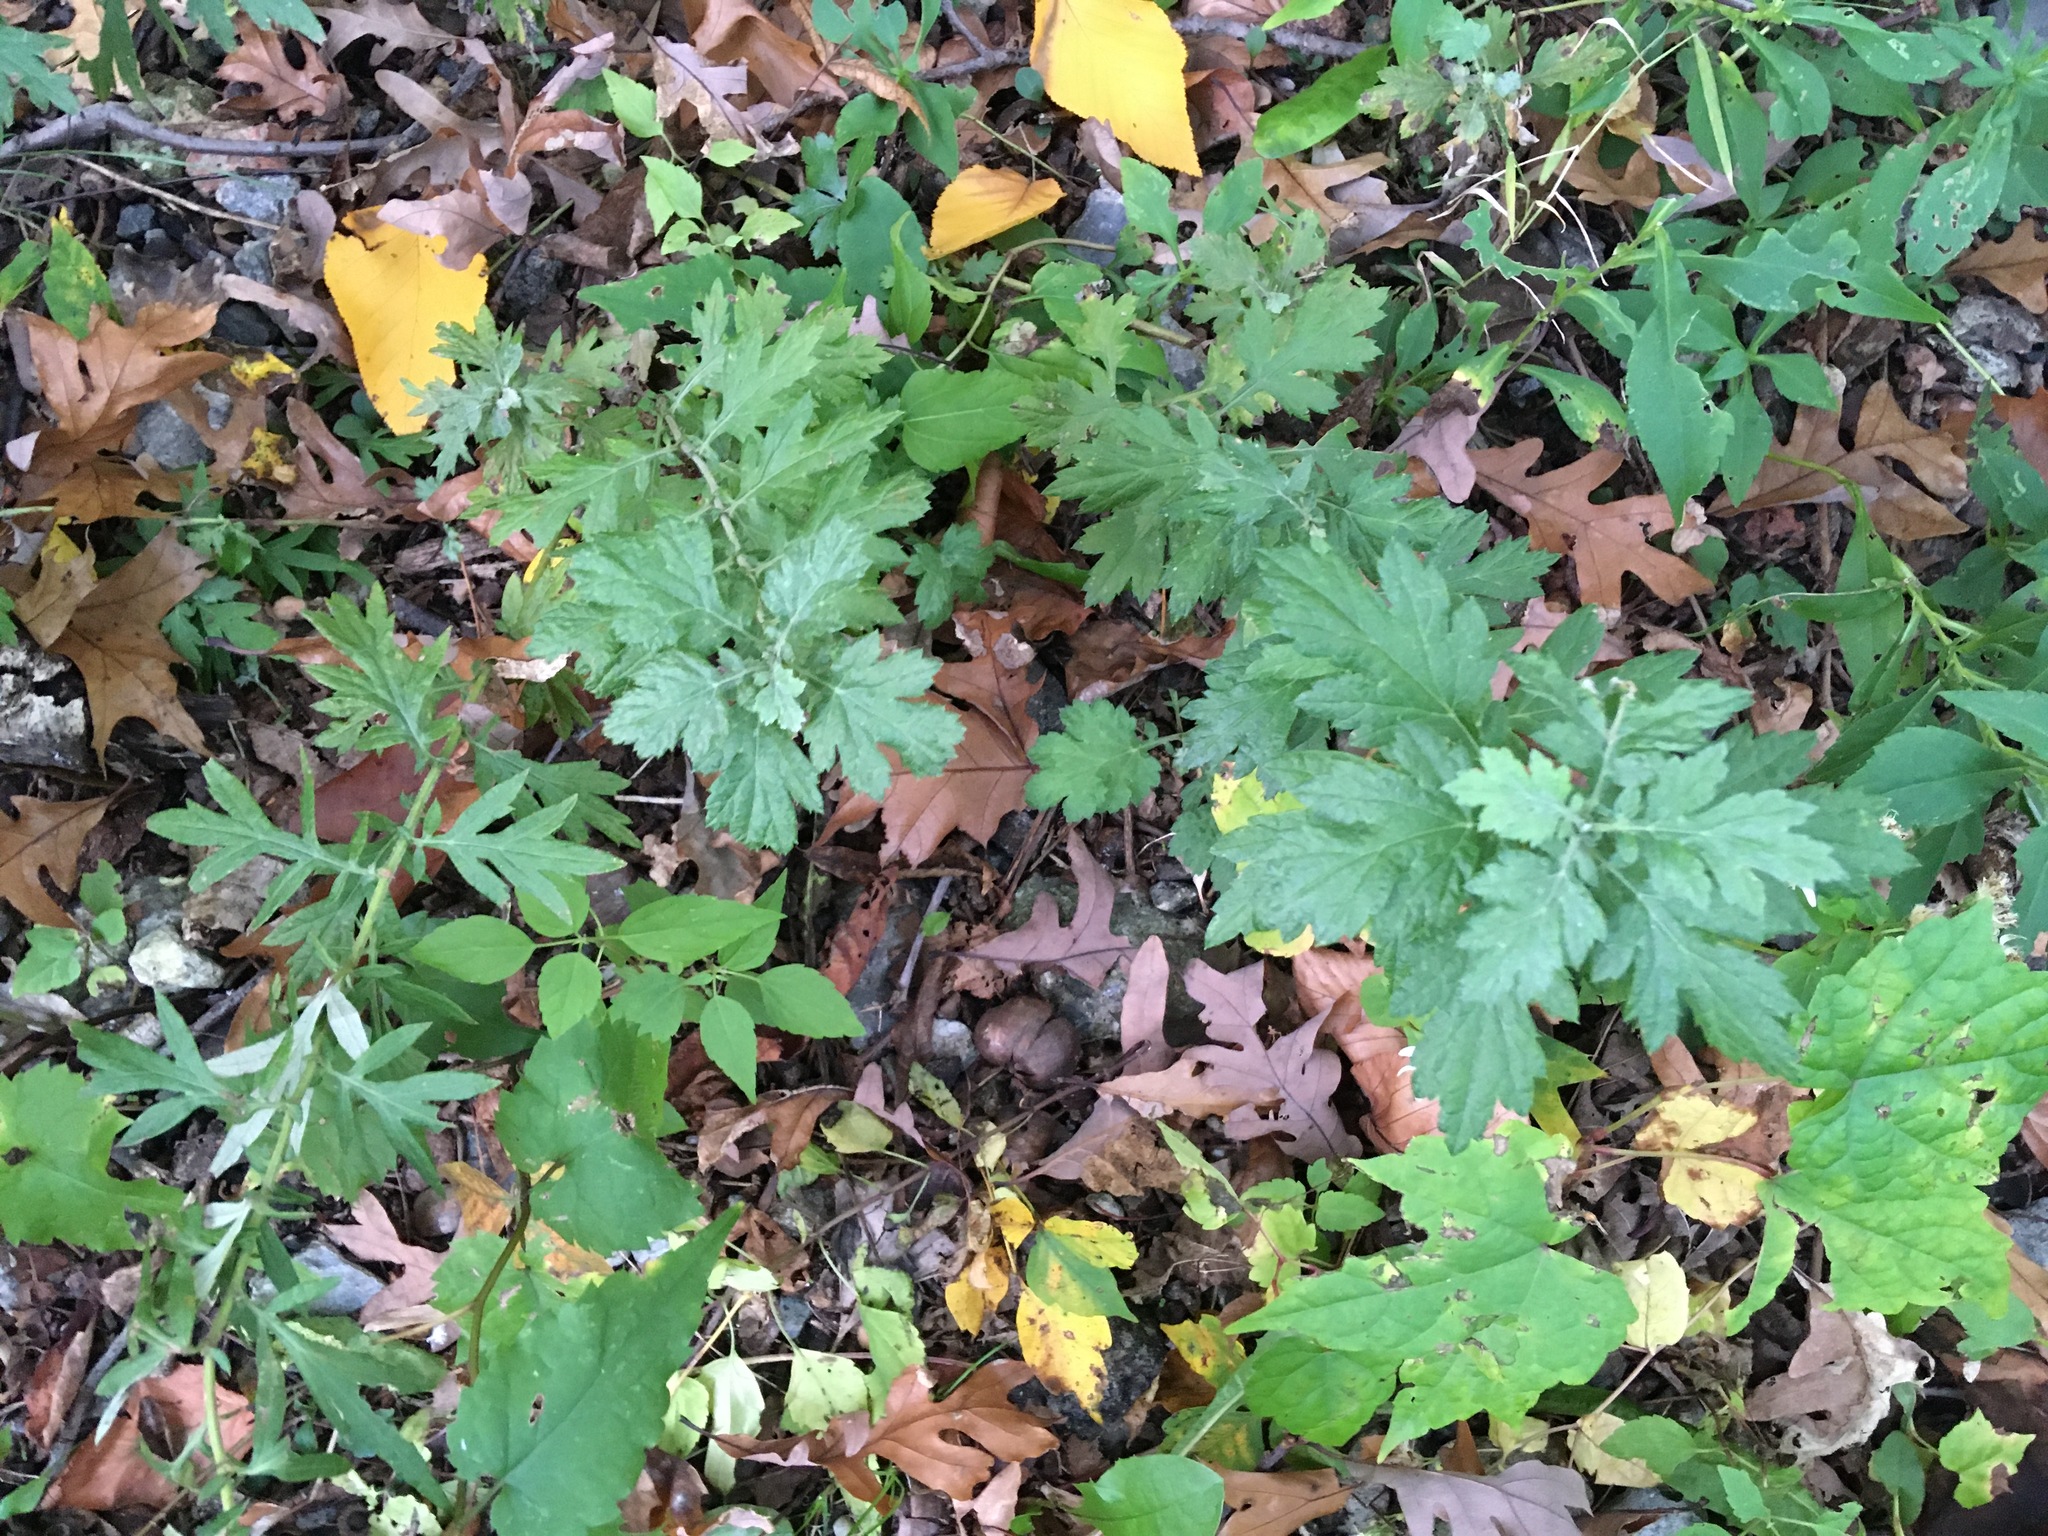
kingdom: Plantae
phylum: Tracheophyta
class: Magnoliopsida
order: Asterales
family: Asteraceae
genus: Artemisia
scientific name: Artemisia vulgaris
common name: Mugwort
